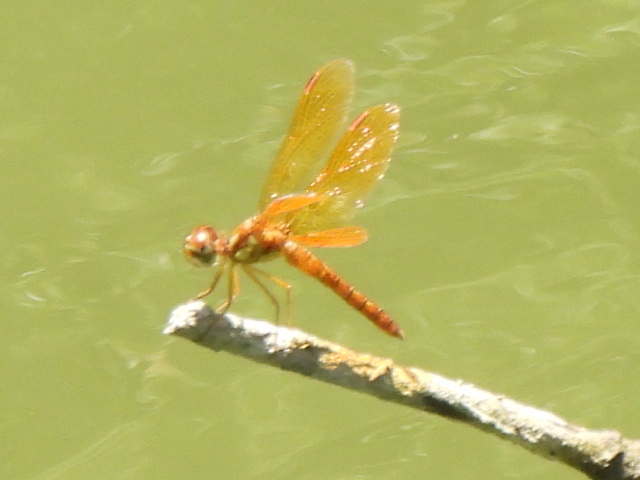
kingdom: Animalia
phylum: Arthropoda
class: Insecta
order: Odonata
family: Libellulidae
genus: Perithemis
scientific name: Perithemis tenera
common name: Eastern amberwing
